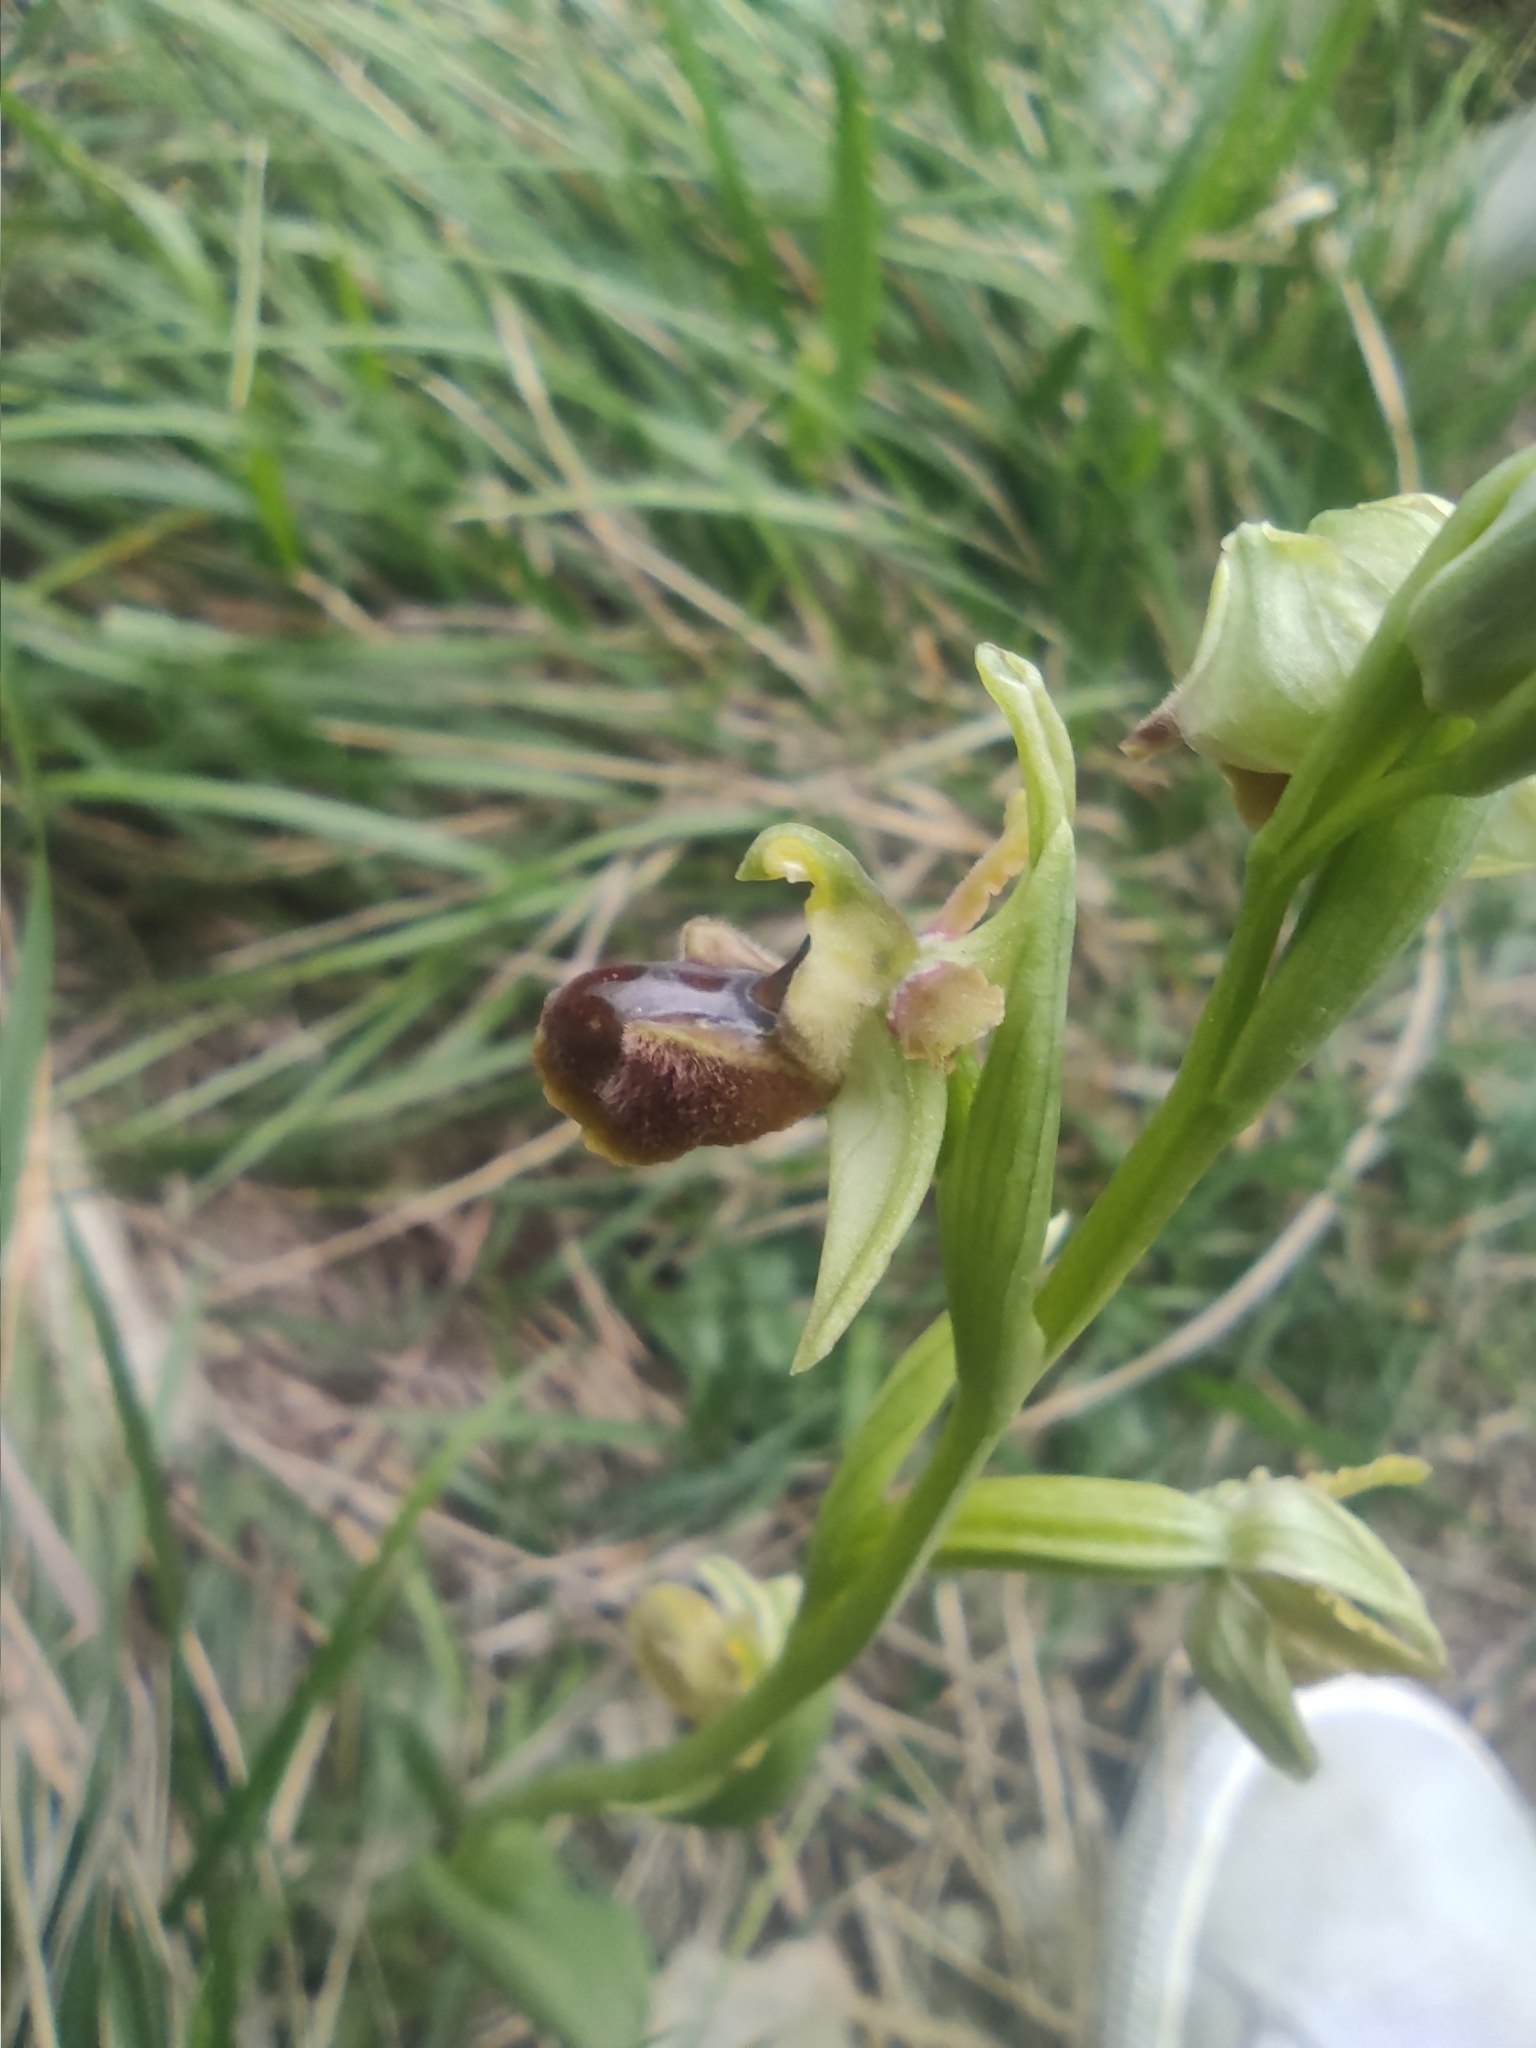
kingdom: Plantae
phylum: Tracheophyta
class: Liliopsida
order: Asparagales
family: Orchidaceae
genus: Ophrys
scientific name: Ophrys sphegodes
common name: Early spider-orchid
